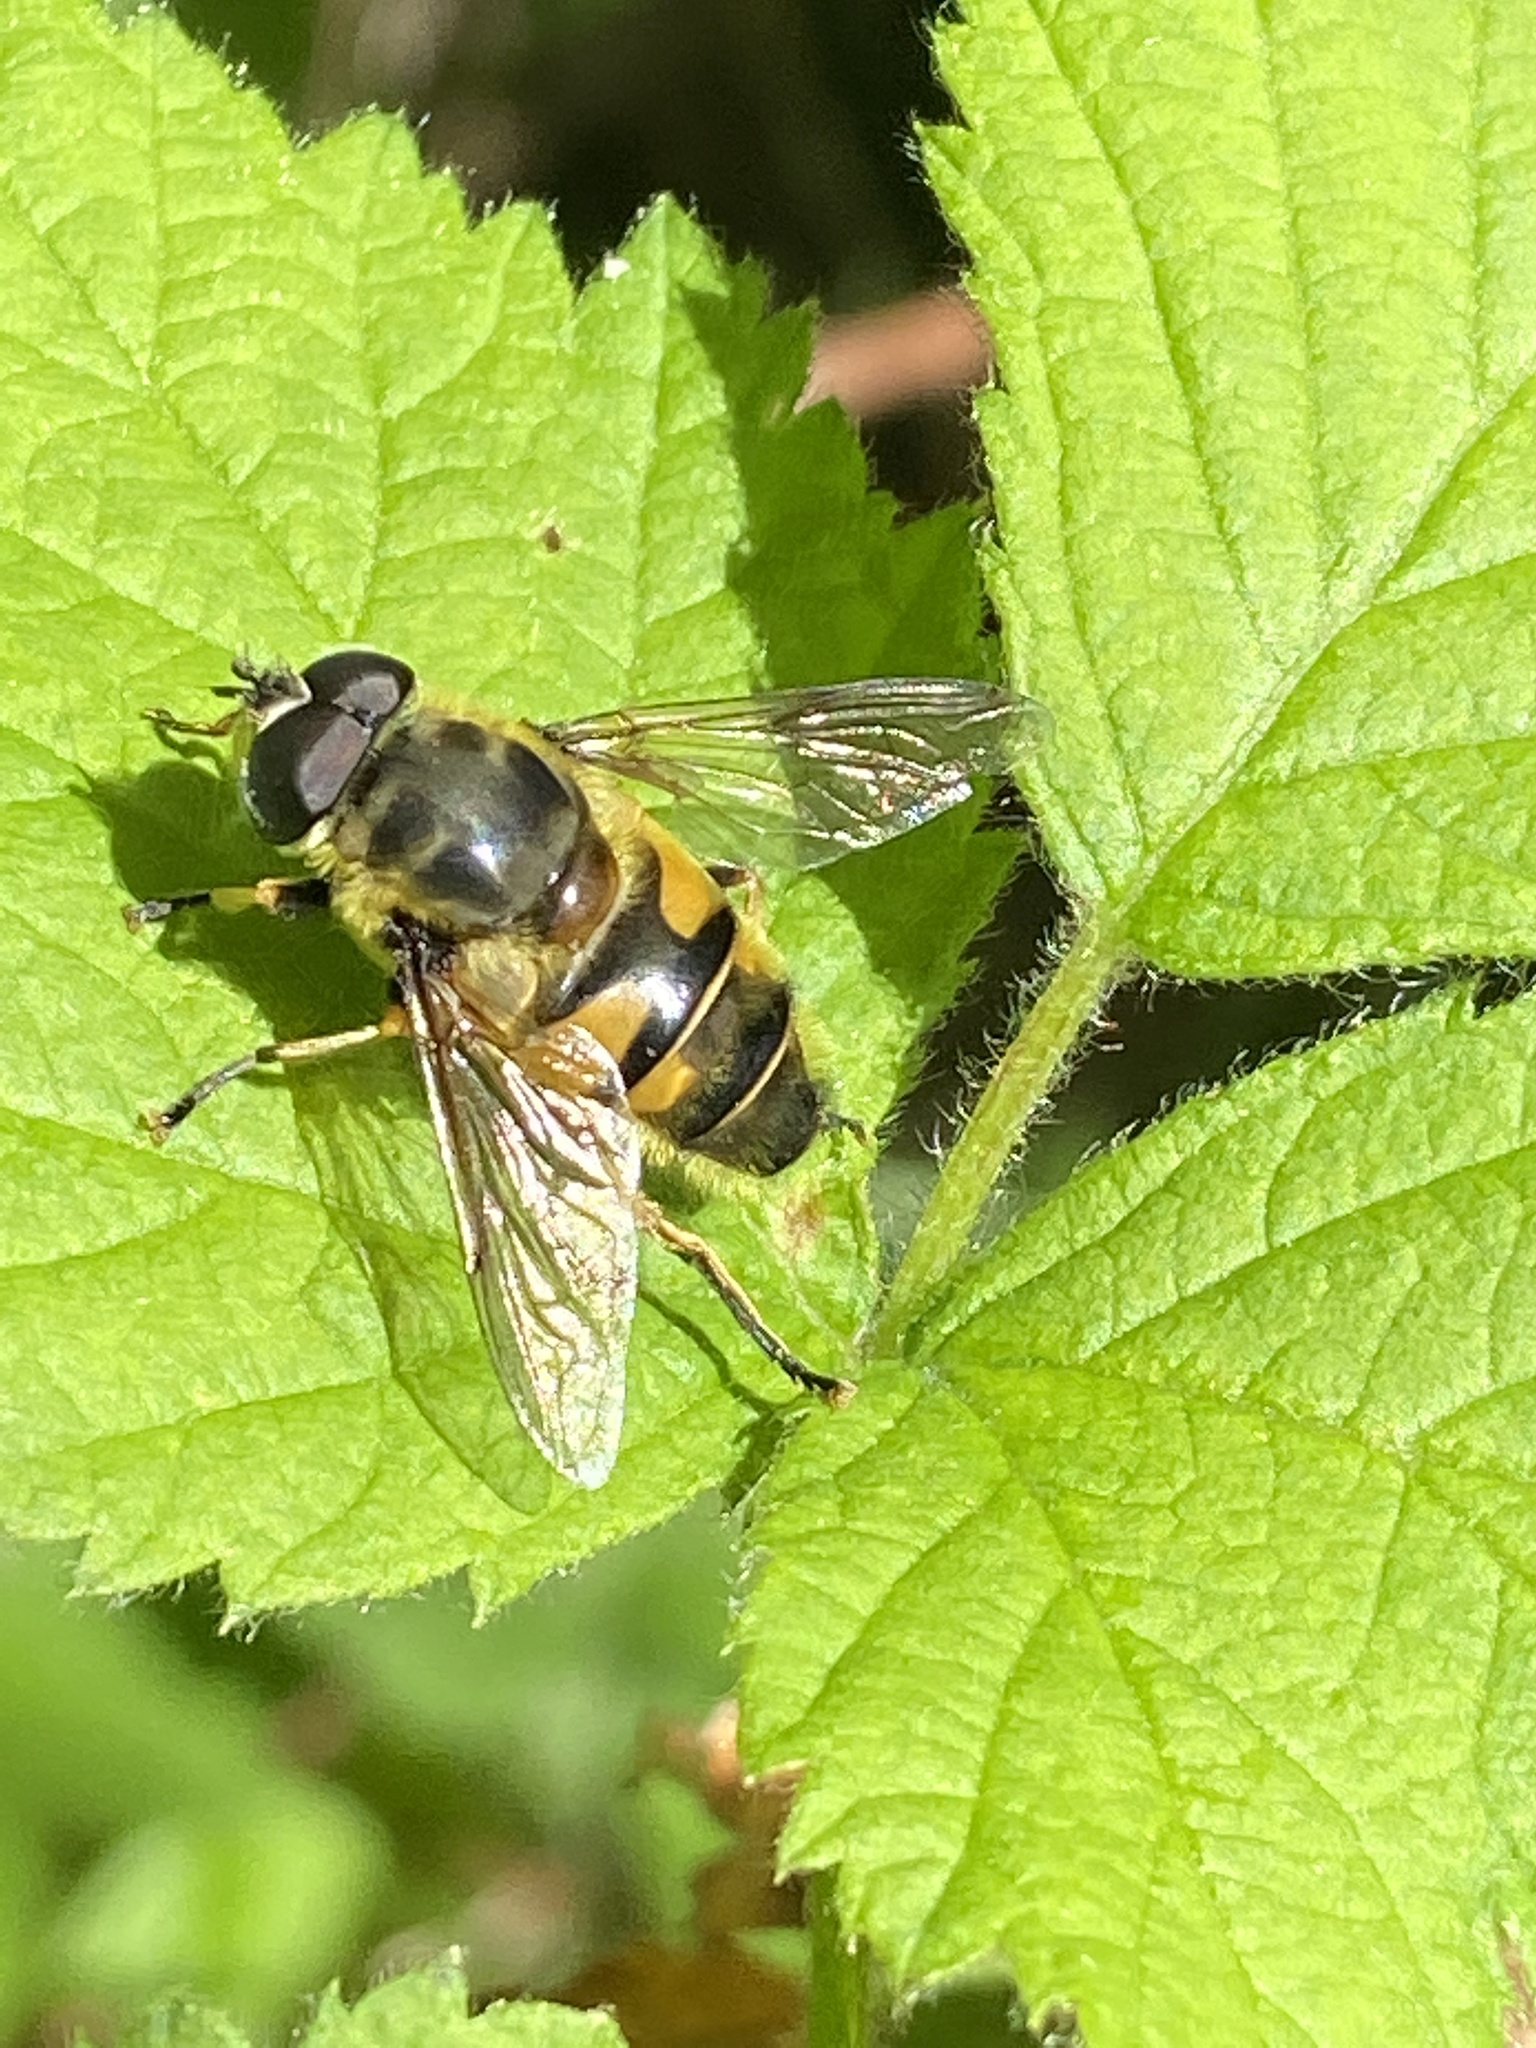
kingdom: Animalia
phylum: Arthropoda
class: Insecta
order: Diptera
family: Syrphidae
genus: Myathropa
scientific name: Myathropa florea
